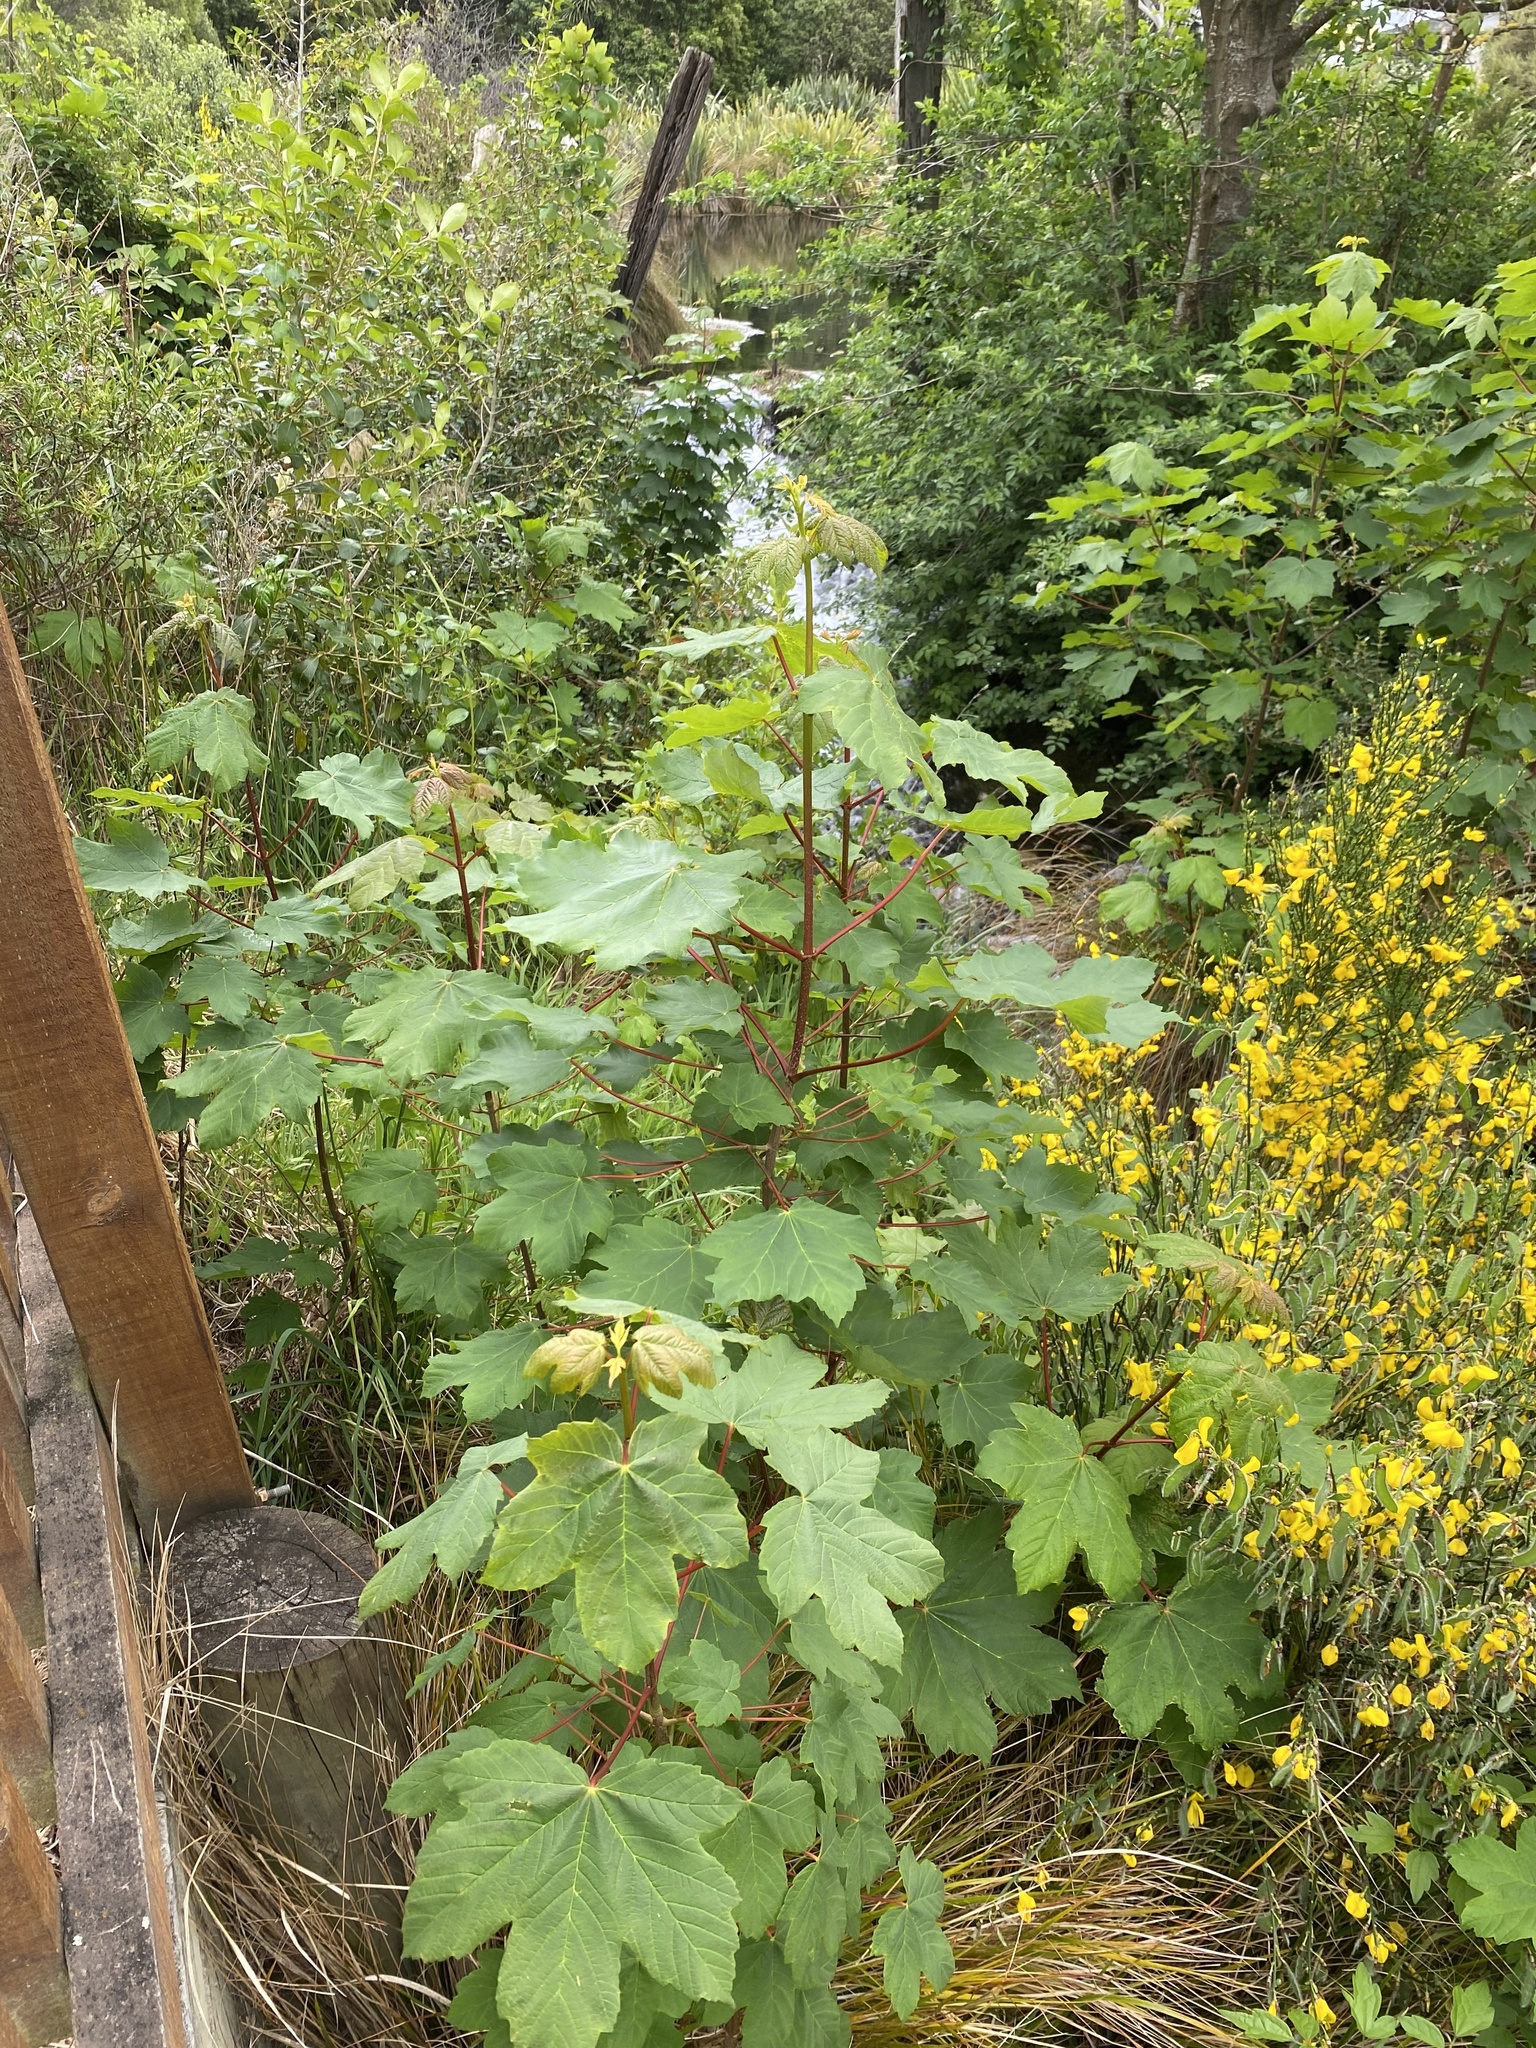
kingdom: Plantae
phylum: Tracheophyta
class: Magnoliopsida
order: Sapindales
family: Sapindaceae
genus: Acer
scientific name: Acer pseudoplatanus
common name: Sycamore
